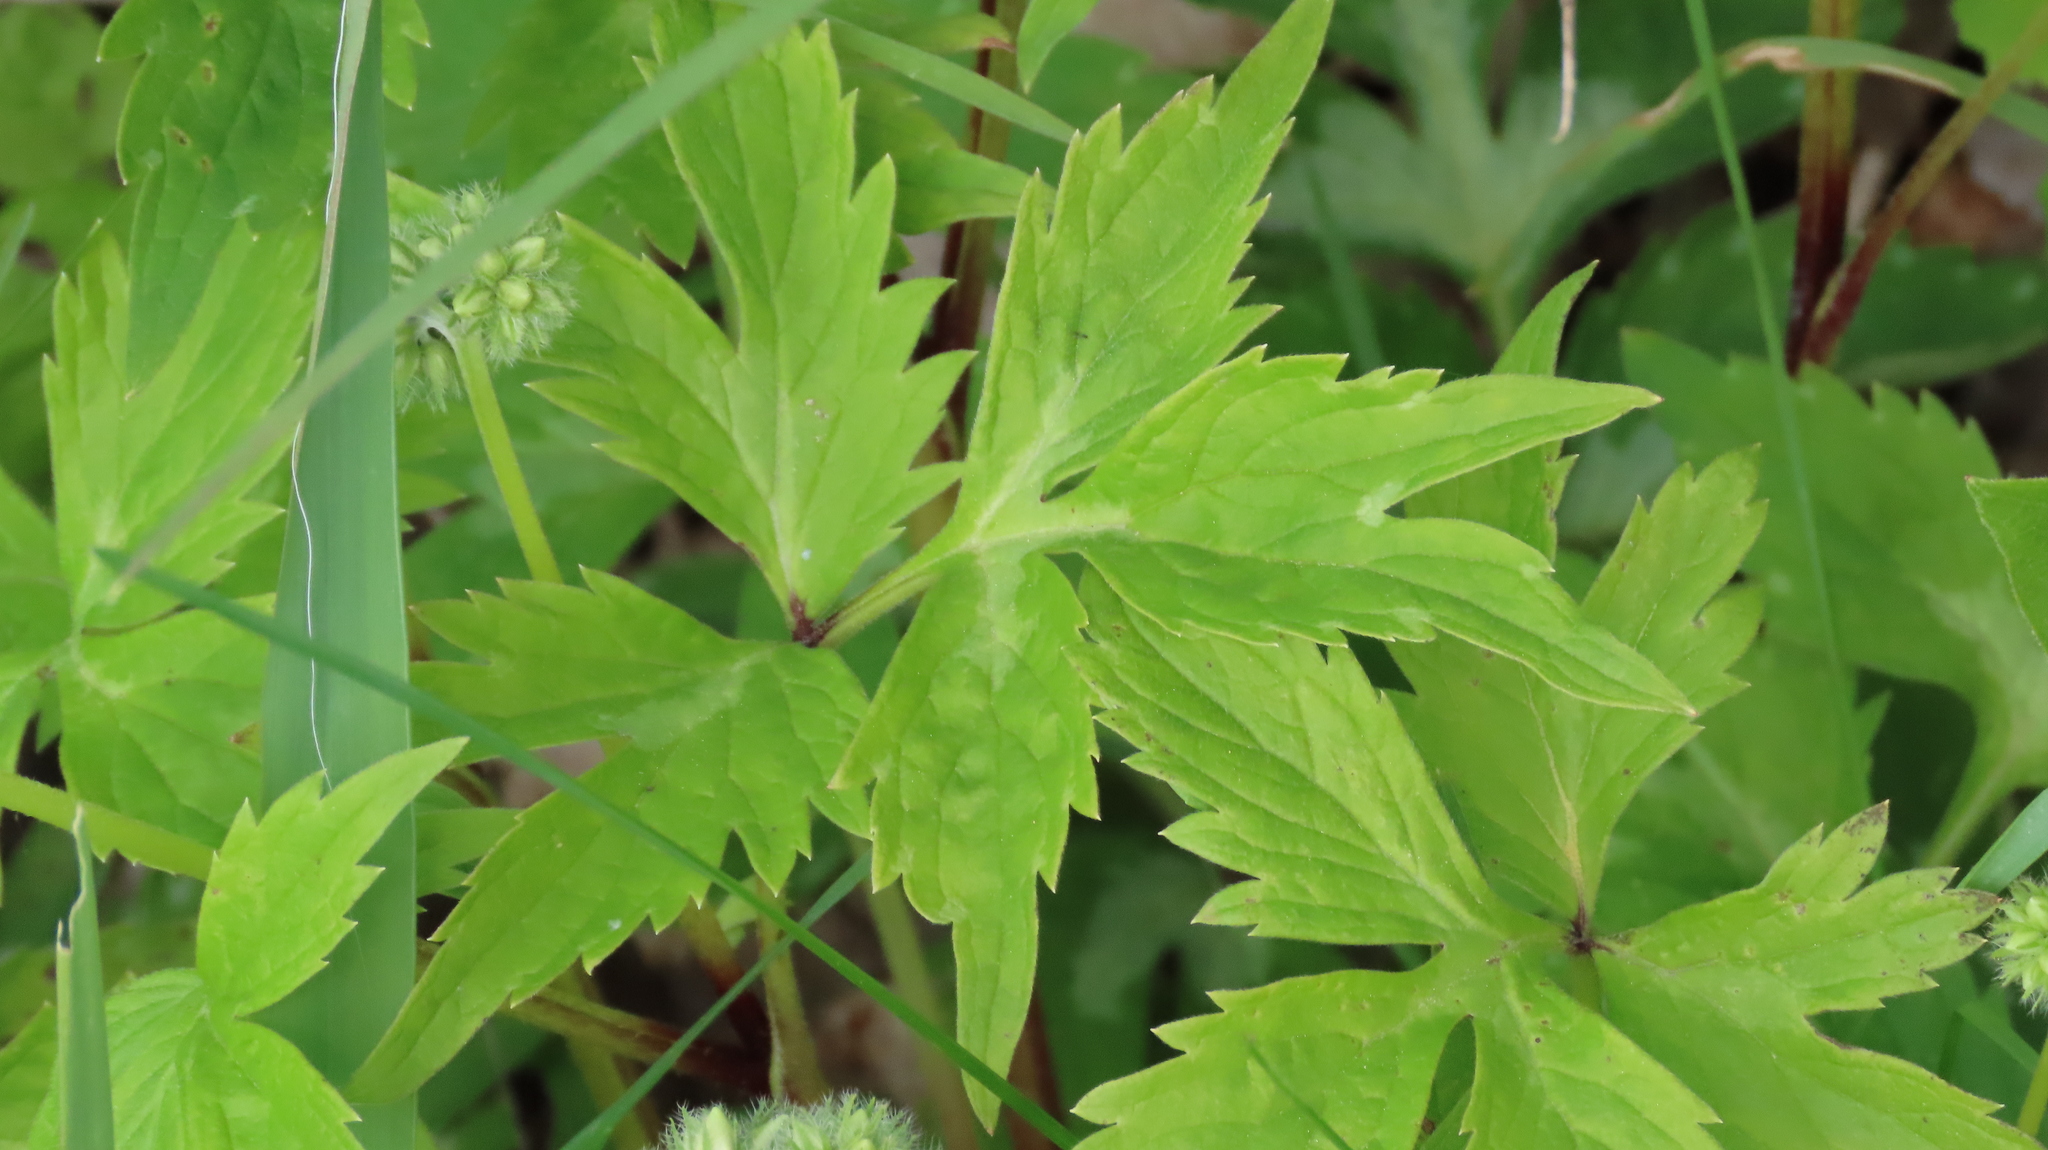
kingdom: Plantae
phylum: Tracheophyta
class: Magnoliopsida
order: Boraginales
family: Hydrophyllaceae
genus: Hydrophyllum
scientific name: Hydrophyllum virginianum
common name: Virginia waterleaf
